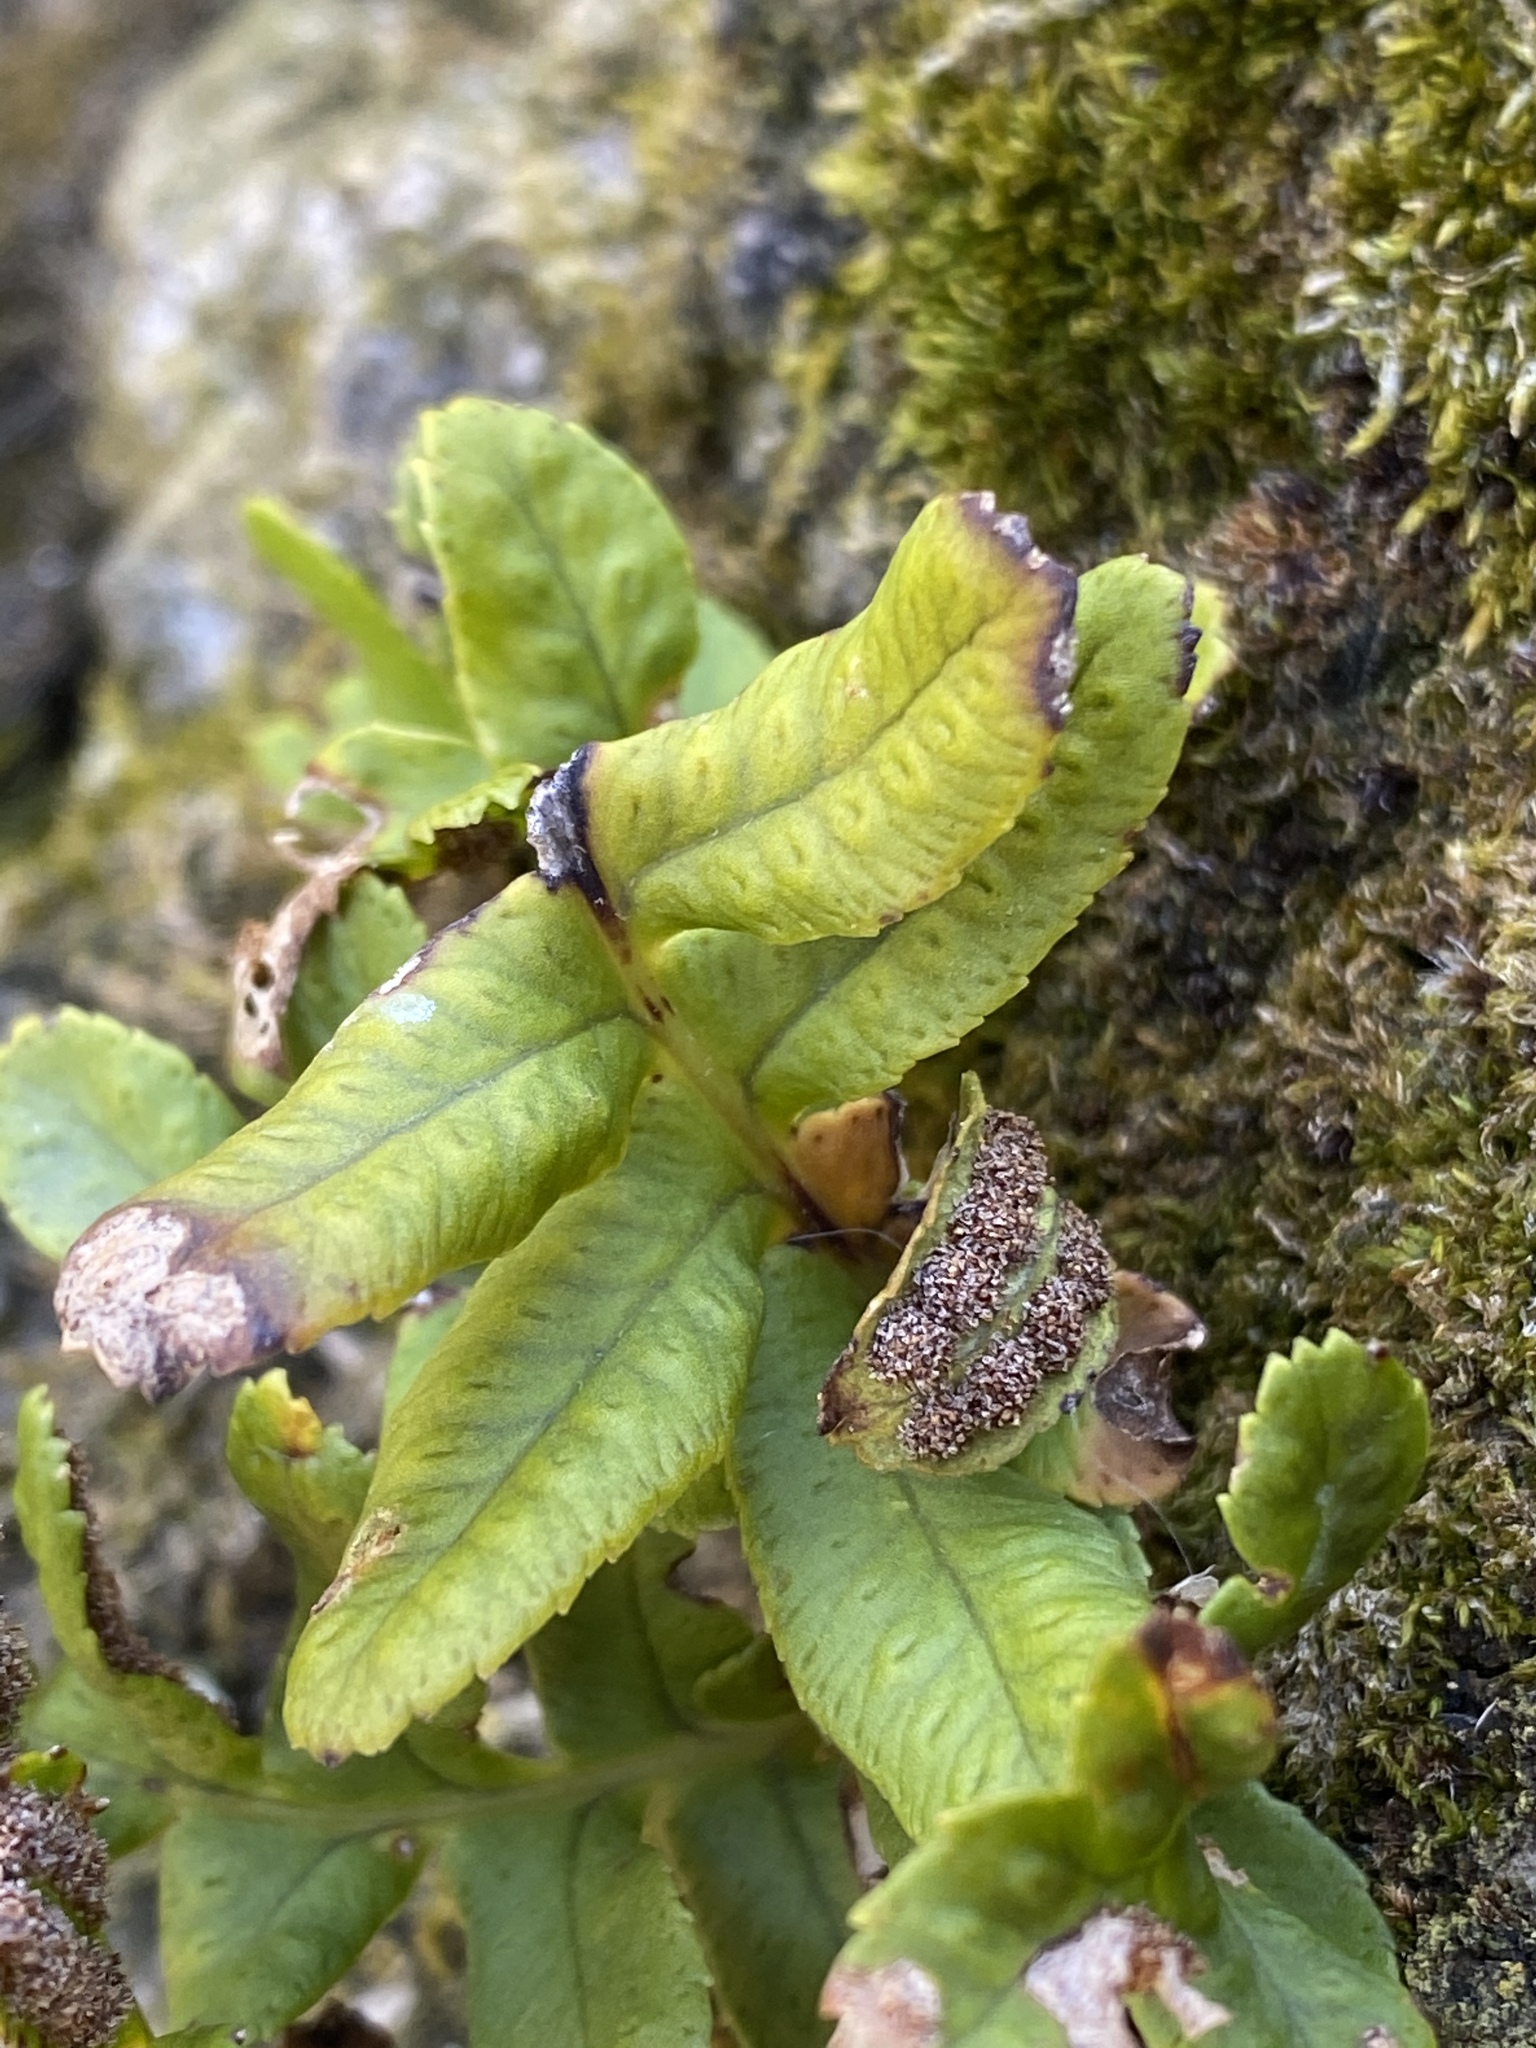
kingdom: Plantae
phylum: Tracheophyta
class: Polypodiopsida
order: Polypodiales
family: Polypodiaceae
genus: Polypodium
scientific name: Polypodium scouleri
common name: Scouler's polypody
